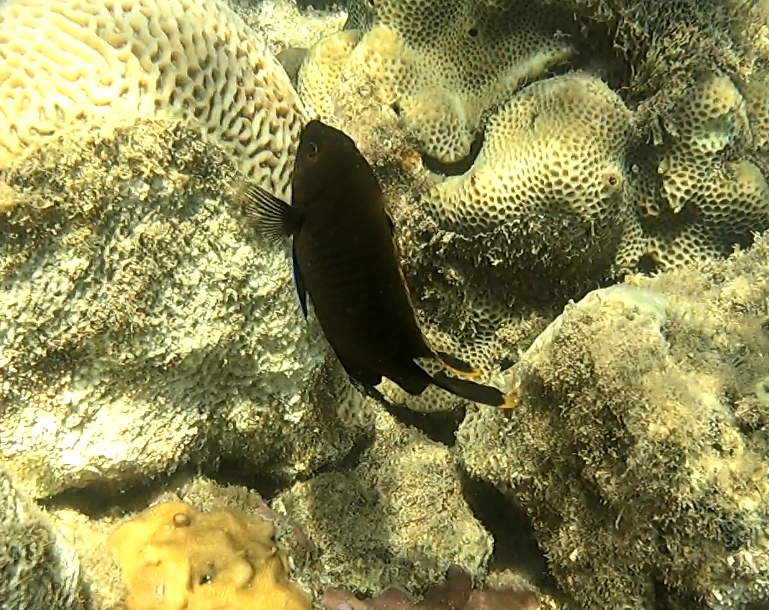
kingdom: Animalia
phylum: Chordata
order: Perciformes
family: Pomacentridae
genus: Stegastes
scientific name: Stegastes apicalis
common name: Australian gregory
